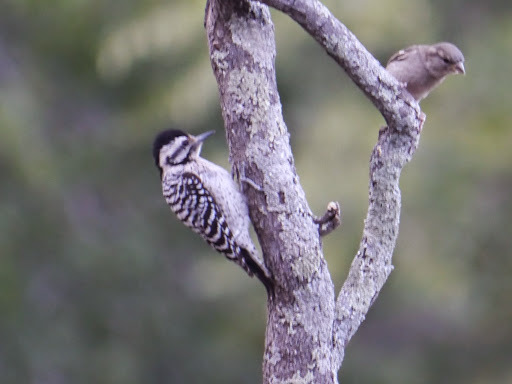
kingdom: Animalia
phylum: Chordata
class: Aves
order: Piciformes
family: Picidae
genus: Dryobates
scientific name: Dryobates scalaris
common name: Ladder-backed woodpecker
